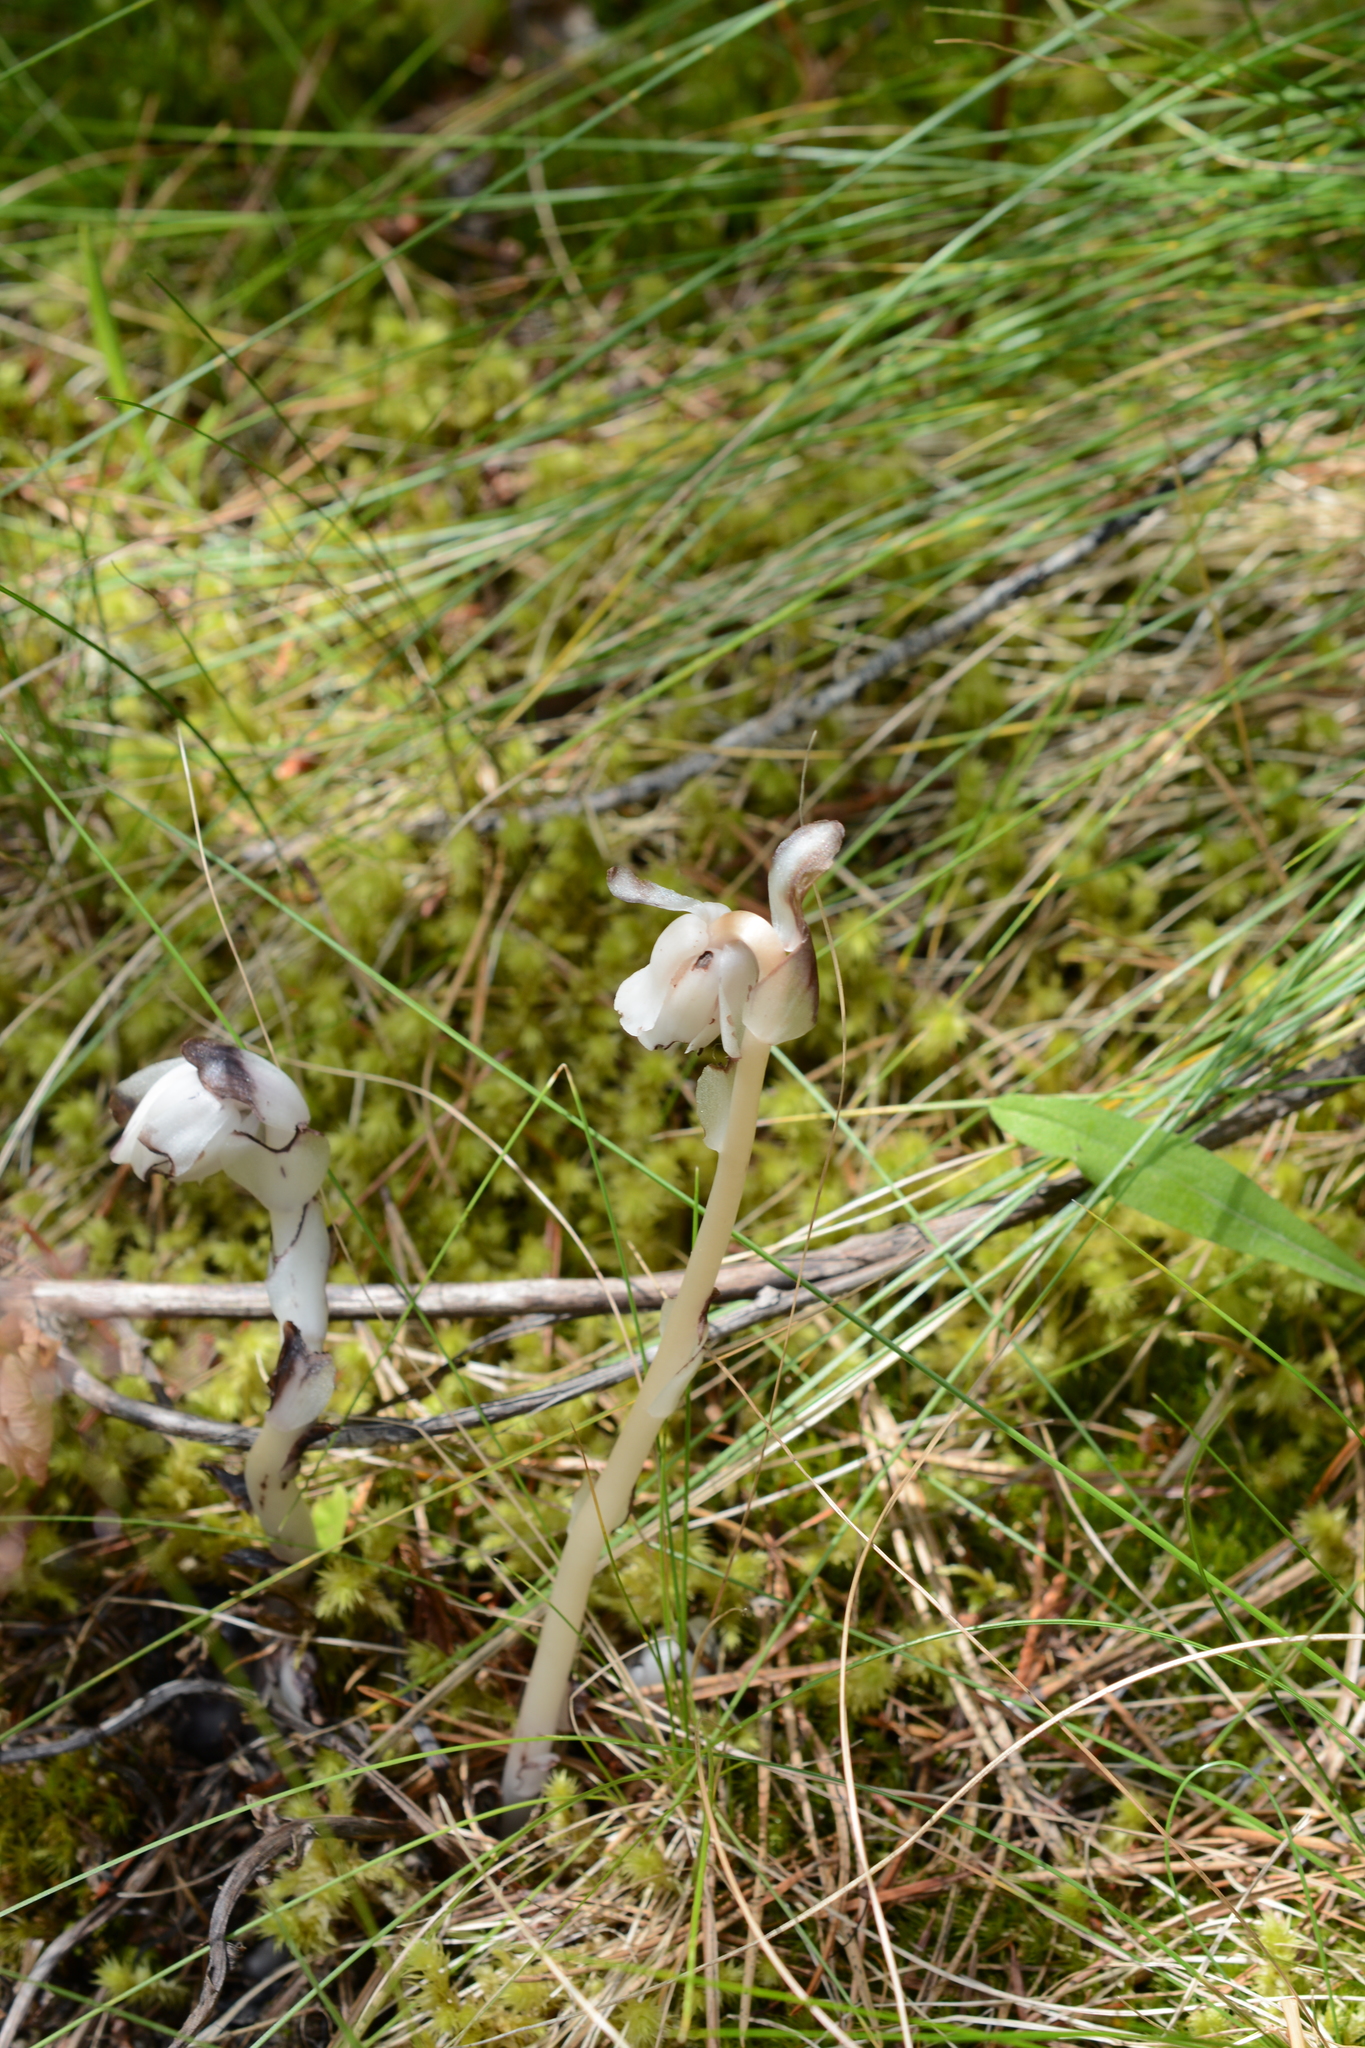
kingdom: Plantae
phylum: Tracheophyta
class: Magnoliopsida
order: Ericales
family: Ericaceae
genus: Monotropa
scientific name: Monotropa uniflora
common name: Convulsion root
